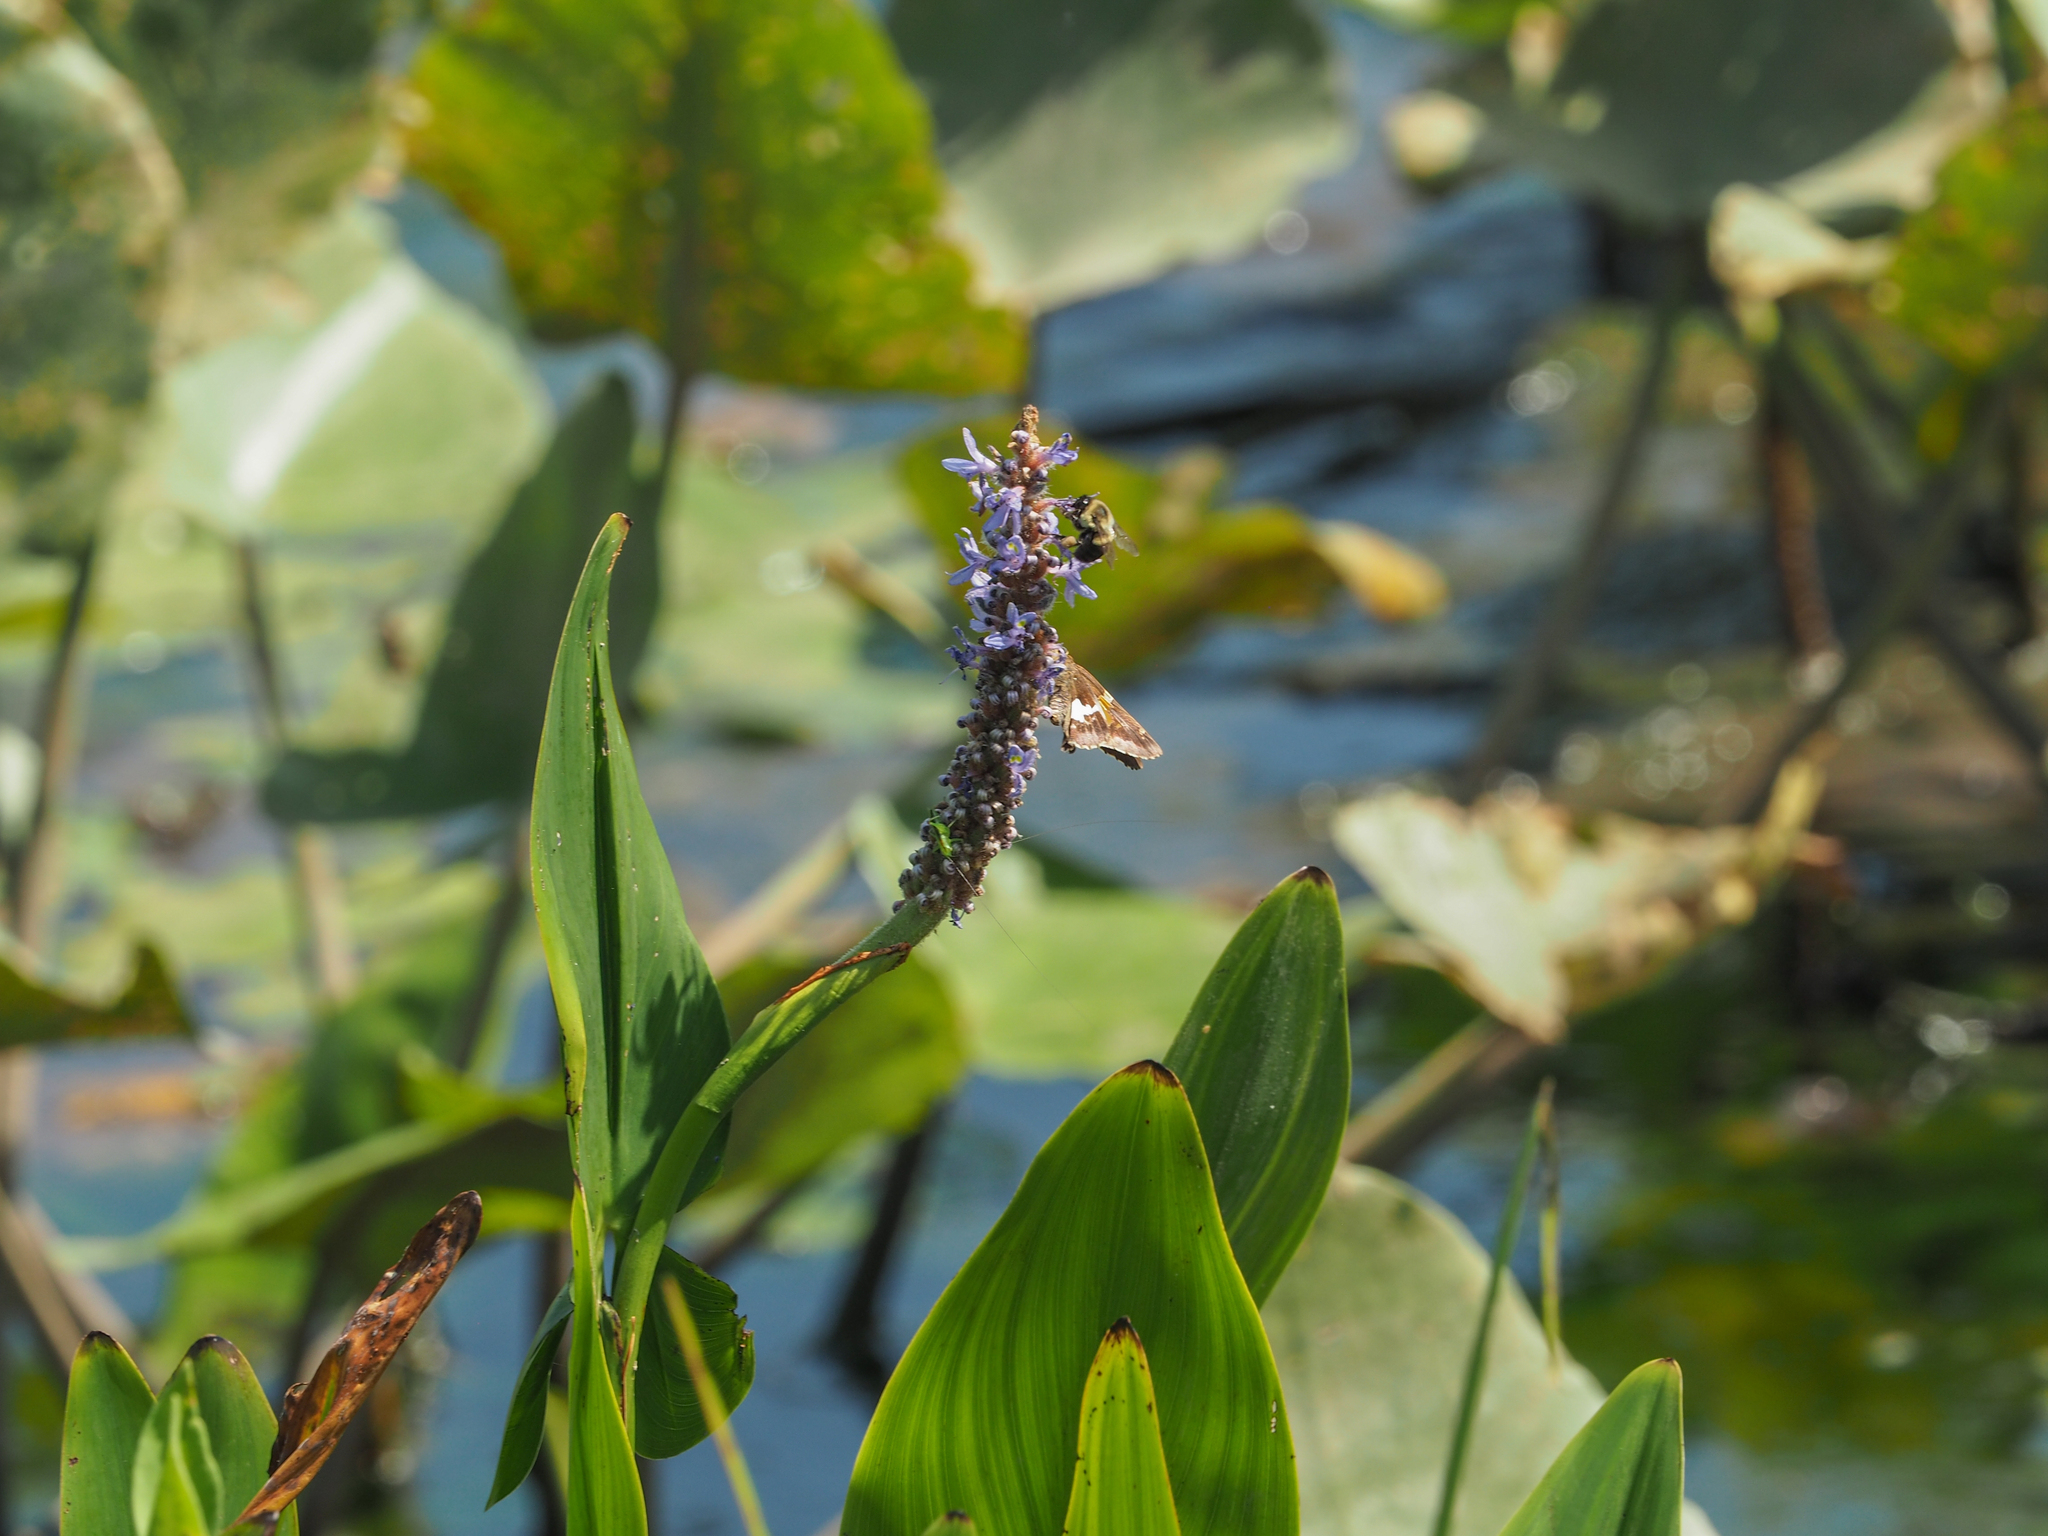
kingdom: Plantae
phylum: Tracheophyta
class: Liliopsida
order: Commelinales
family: Pontederiaceae
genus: Pontederia
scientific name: Pontederia cordata
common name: Pickerelweed
